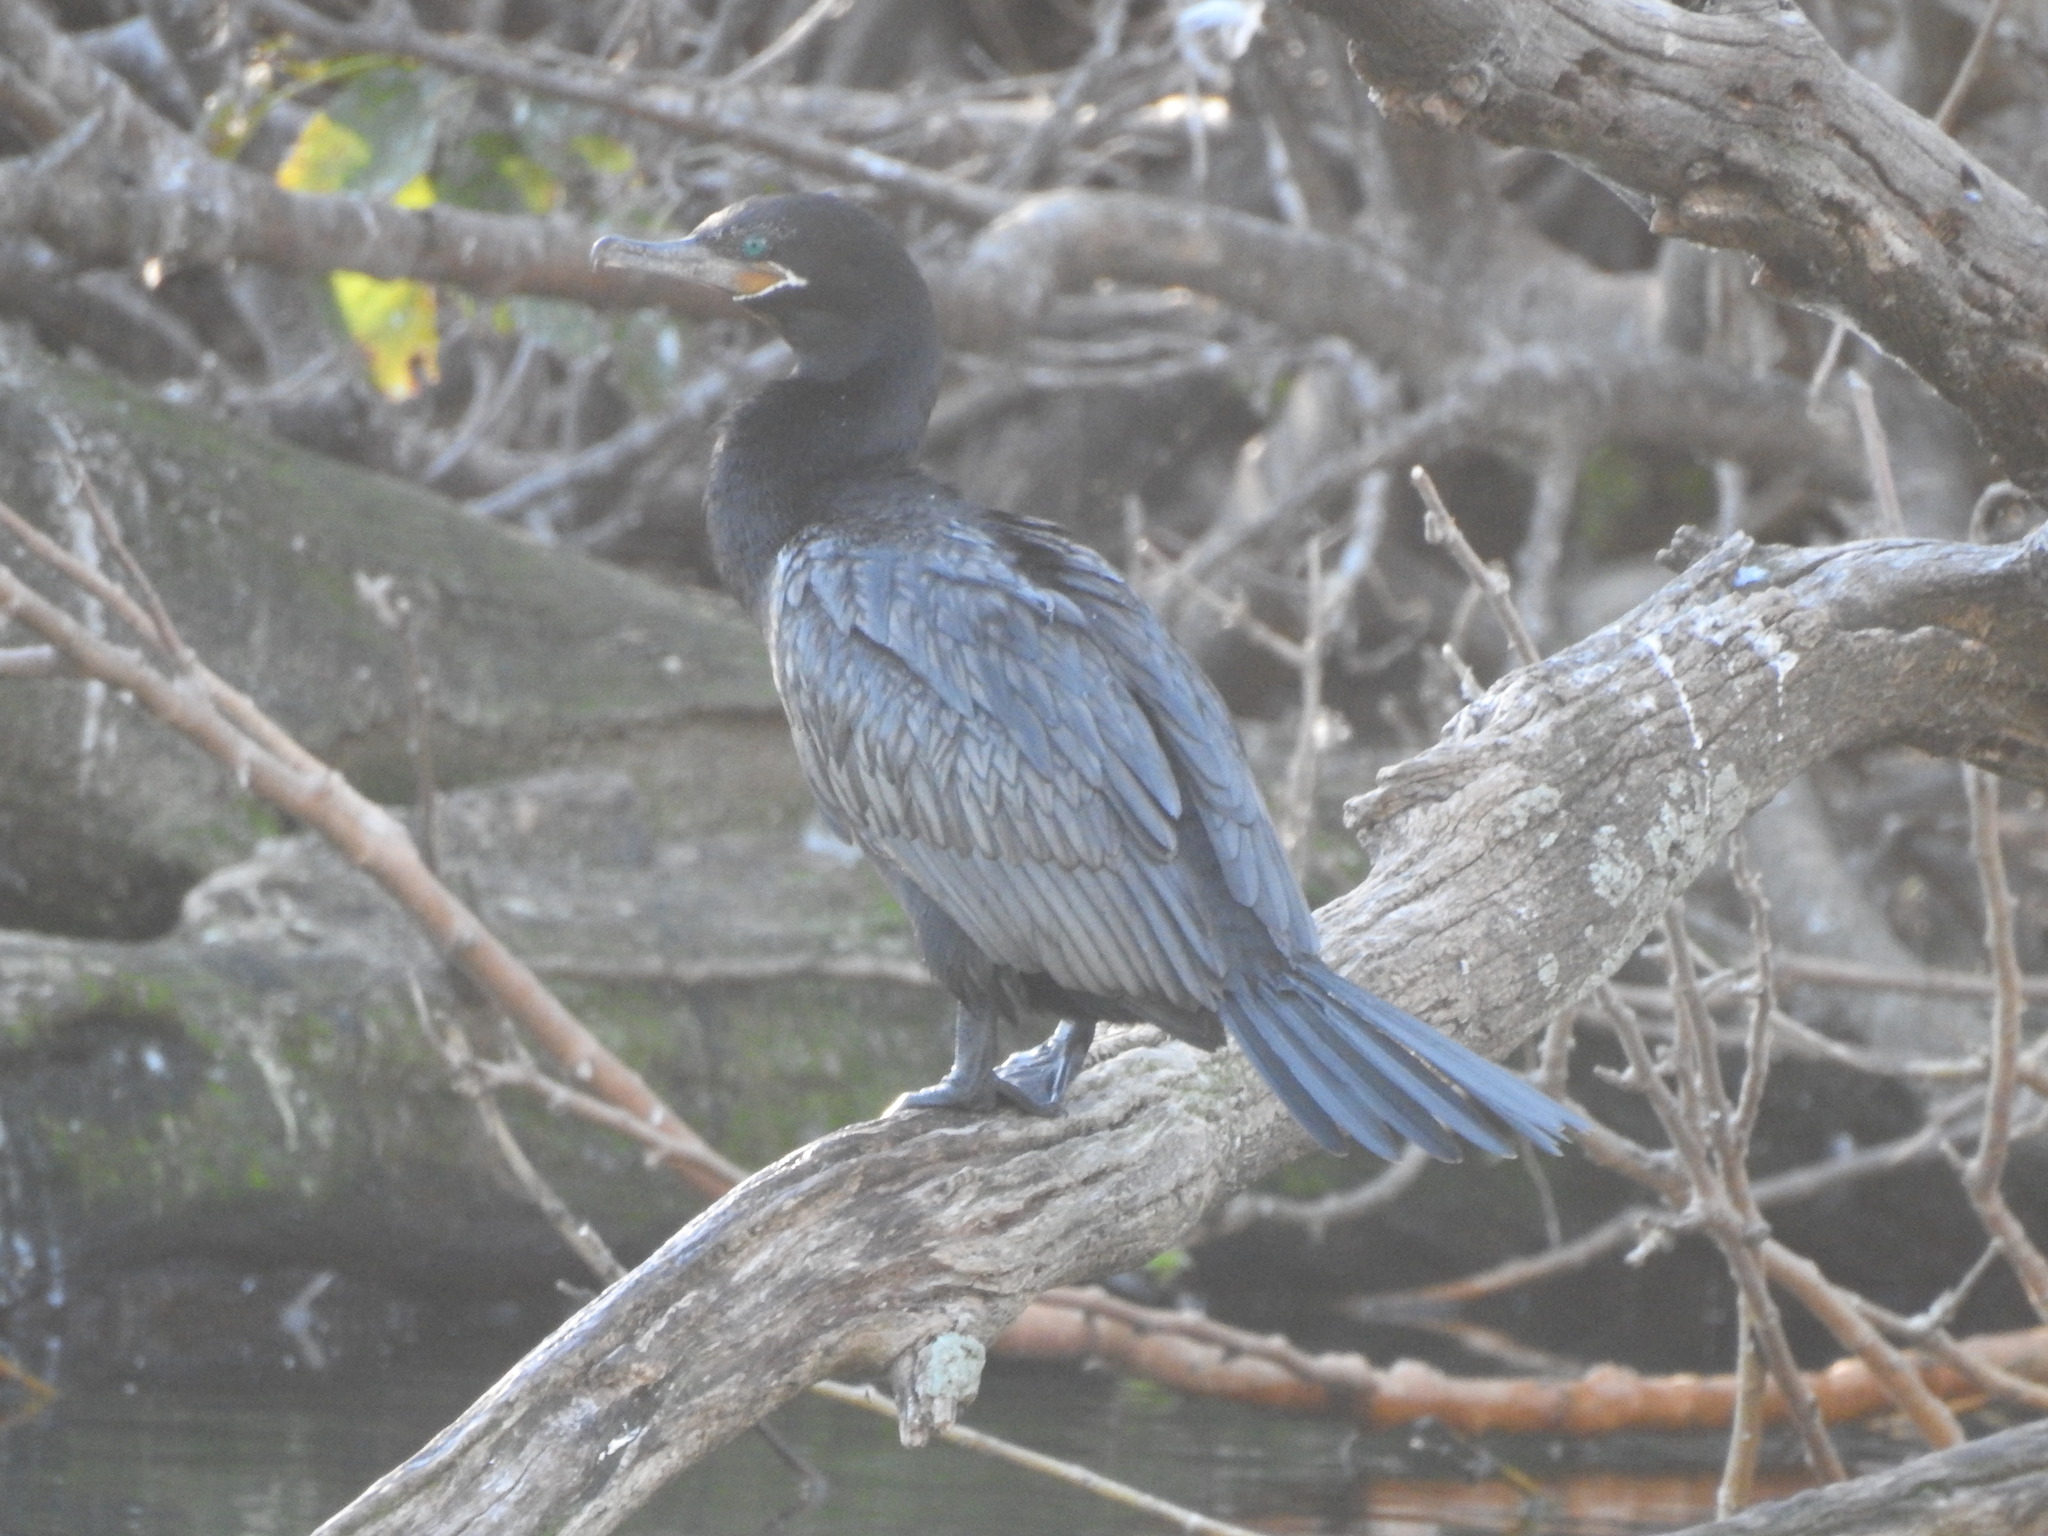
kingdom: Animalia
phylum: Chordata
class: Aves
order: Suliformes
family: Phalacrocoracidae
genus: Phalacrocorax
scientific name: Phalacrocorax brasilianus
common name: Neotropic cormorant
